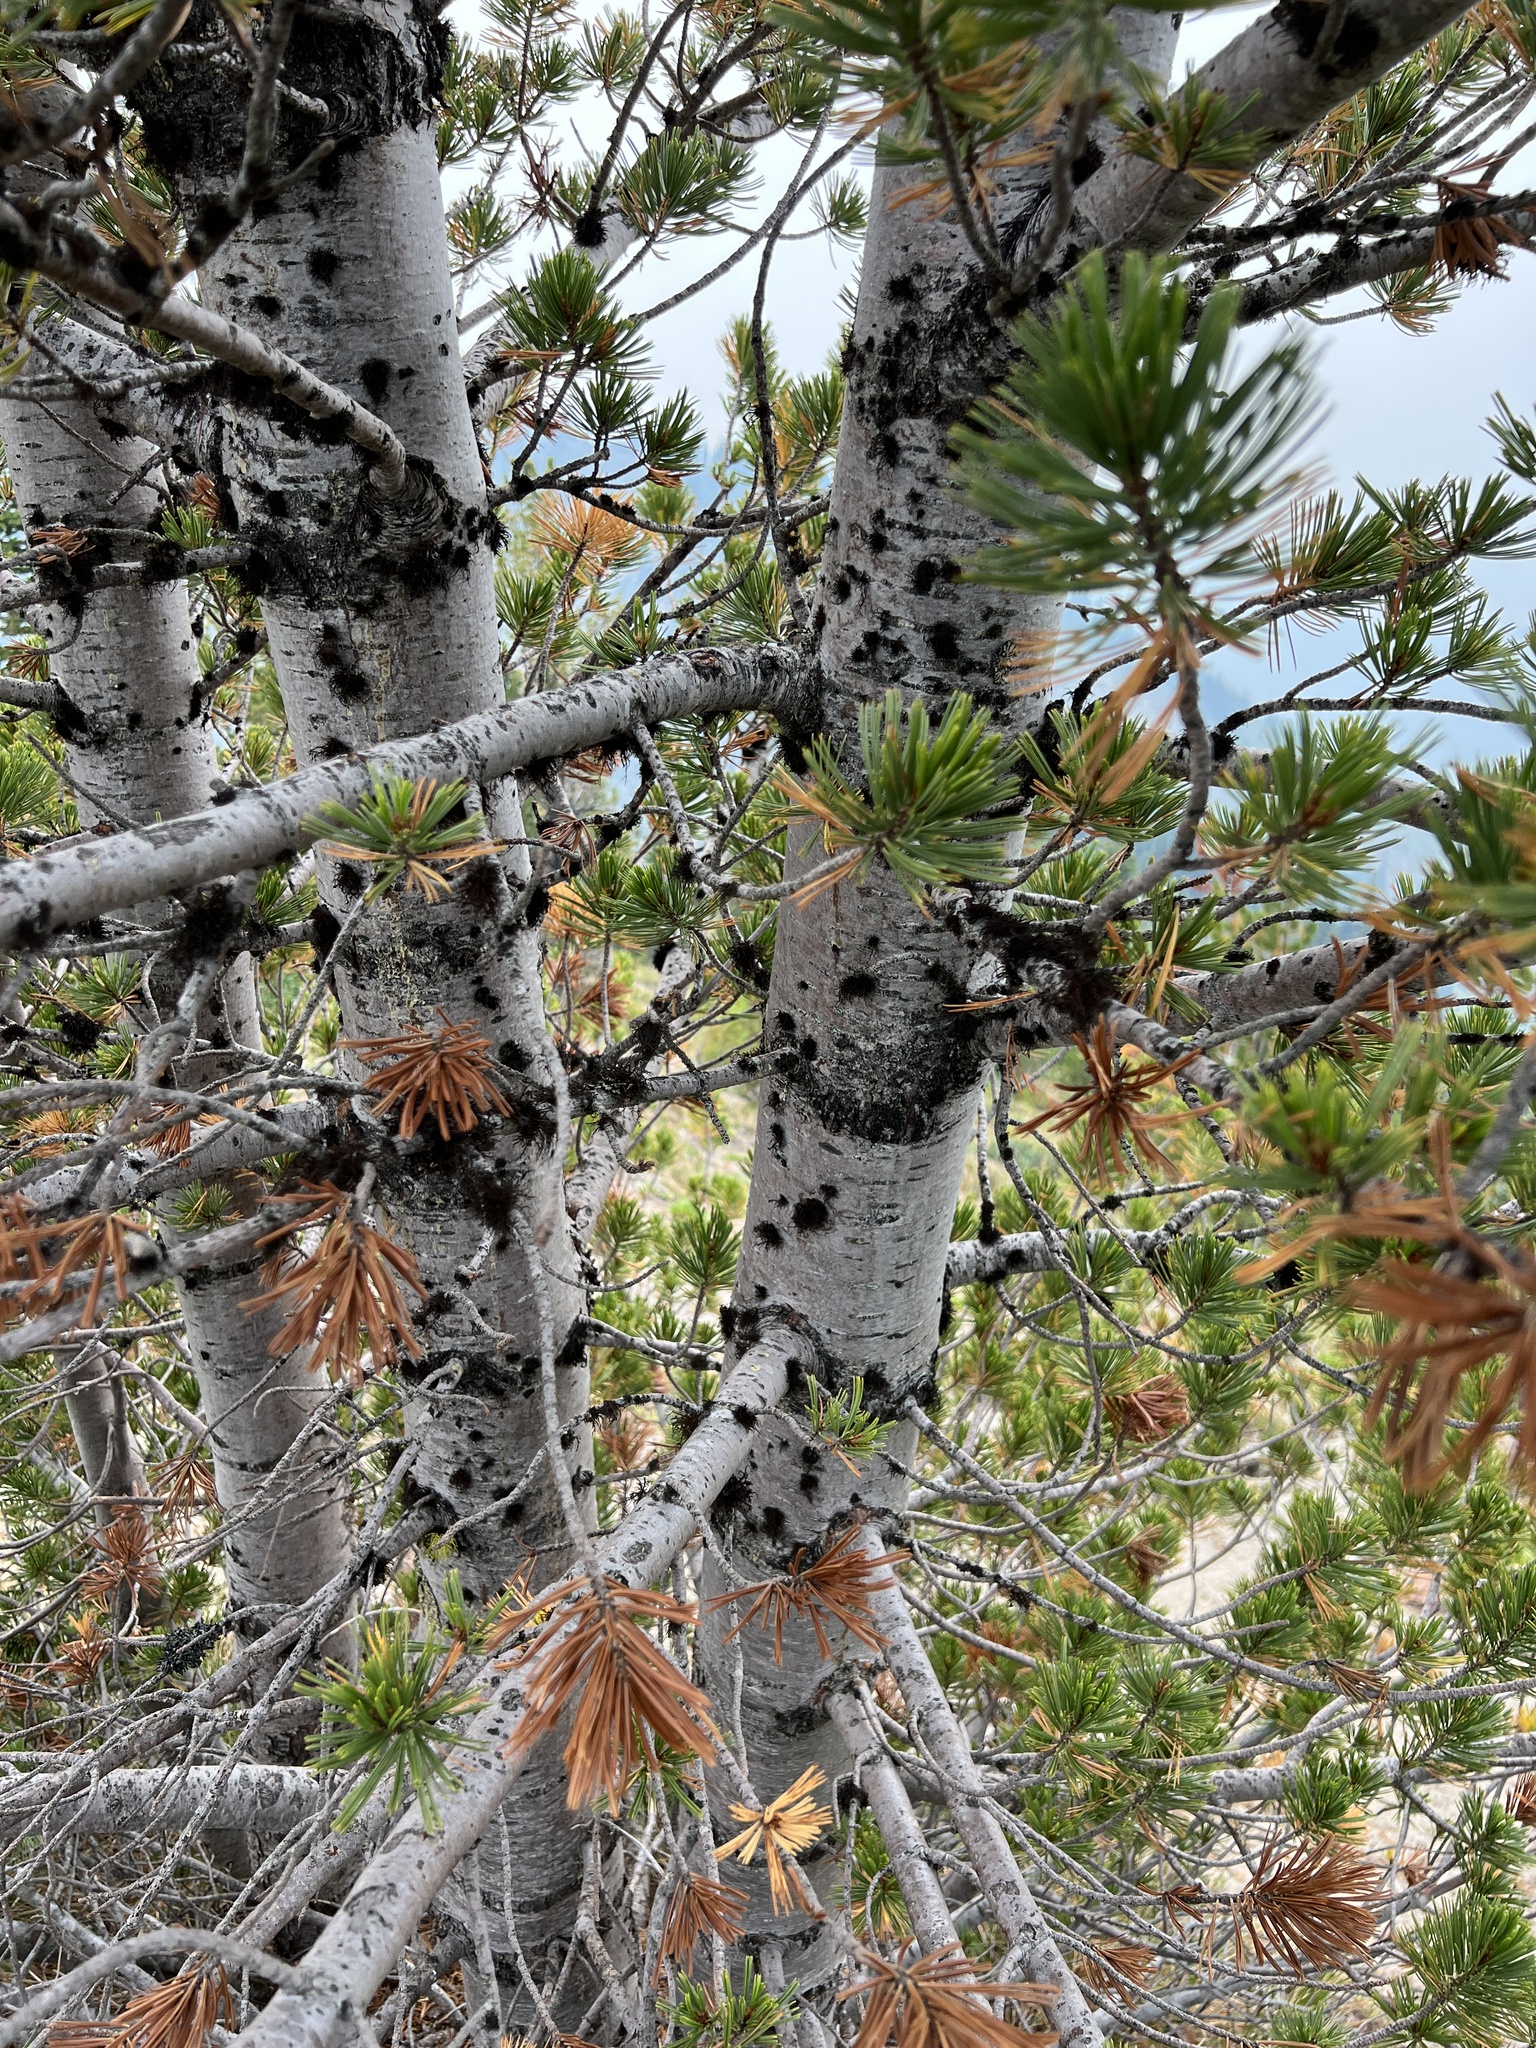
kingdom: Plantae
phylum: Tracheophyta
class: Pinopsida
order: Pinales
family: Pinaceae
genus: Pinus
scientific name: Pinus albicaulis
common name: Whitebark pine
